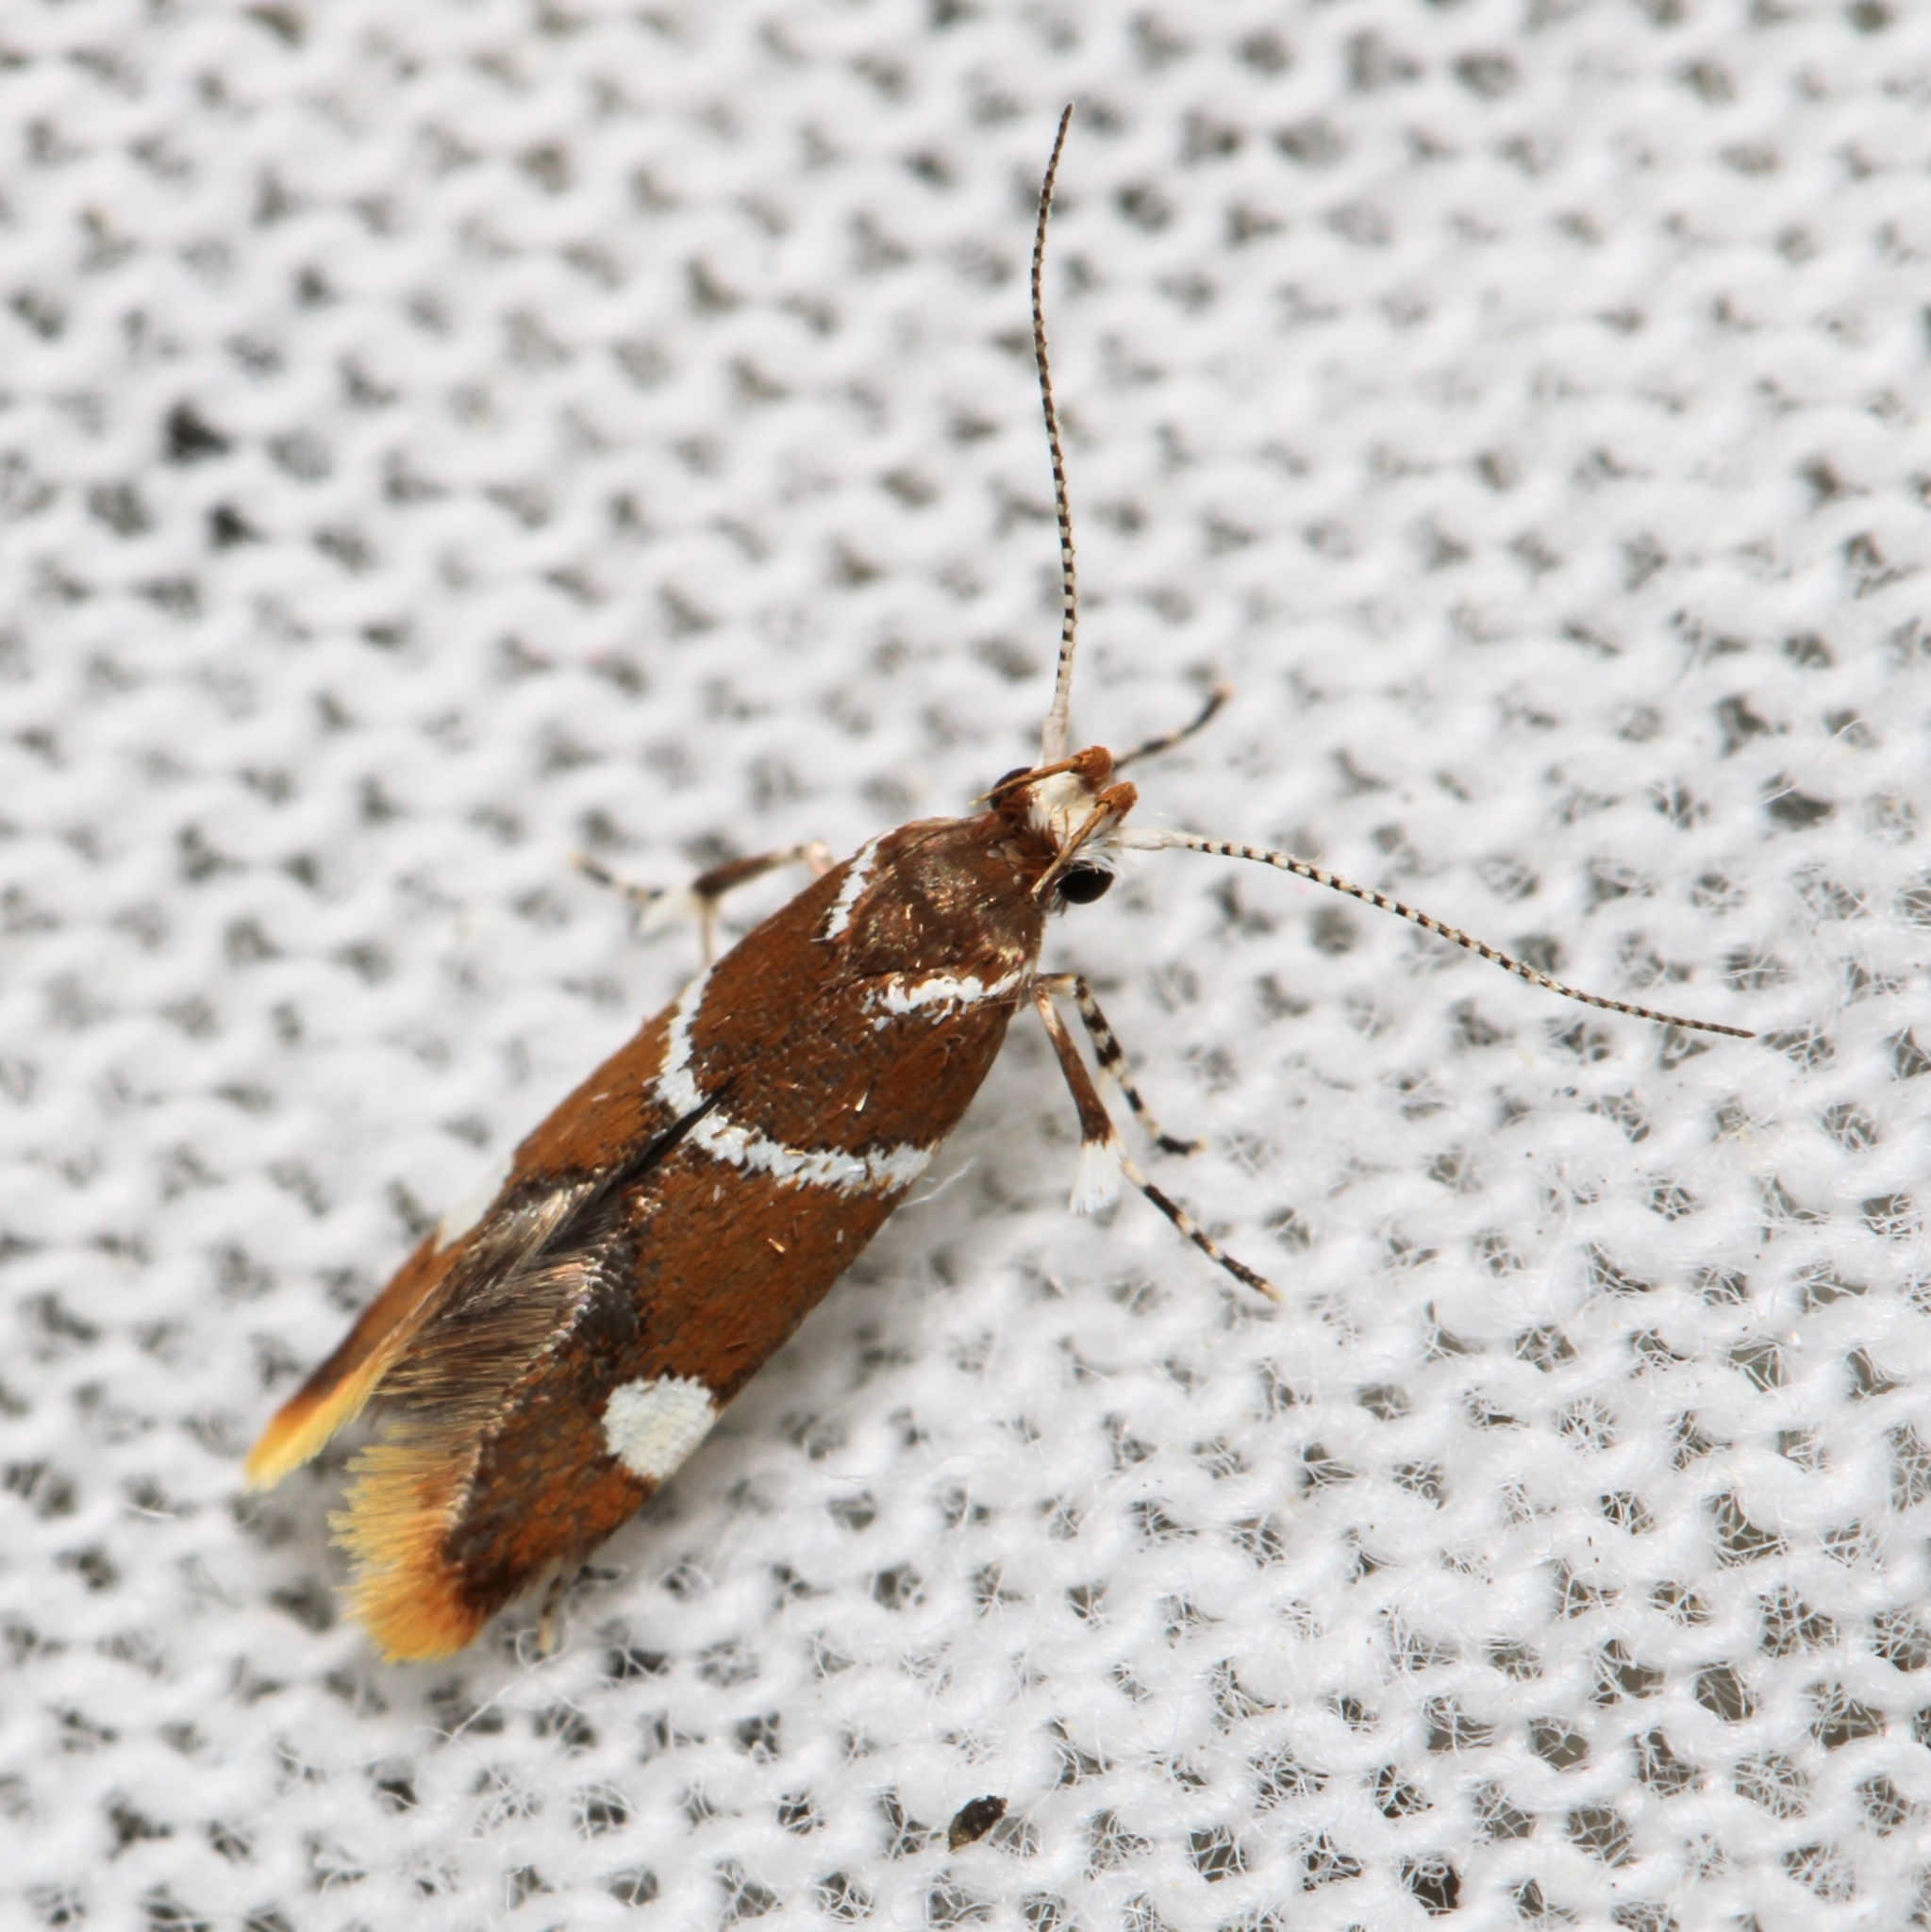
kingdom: Animalia
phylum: Arthropoda
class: Insecta
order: Lepidoptera
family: Oecophoridae
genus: Promalactis
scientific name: Promalactis suzukiella
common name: Moth
